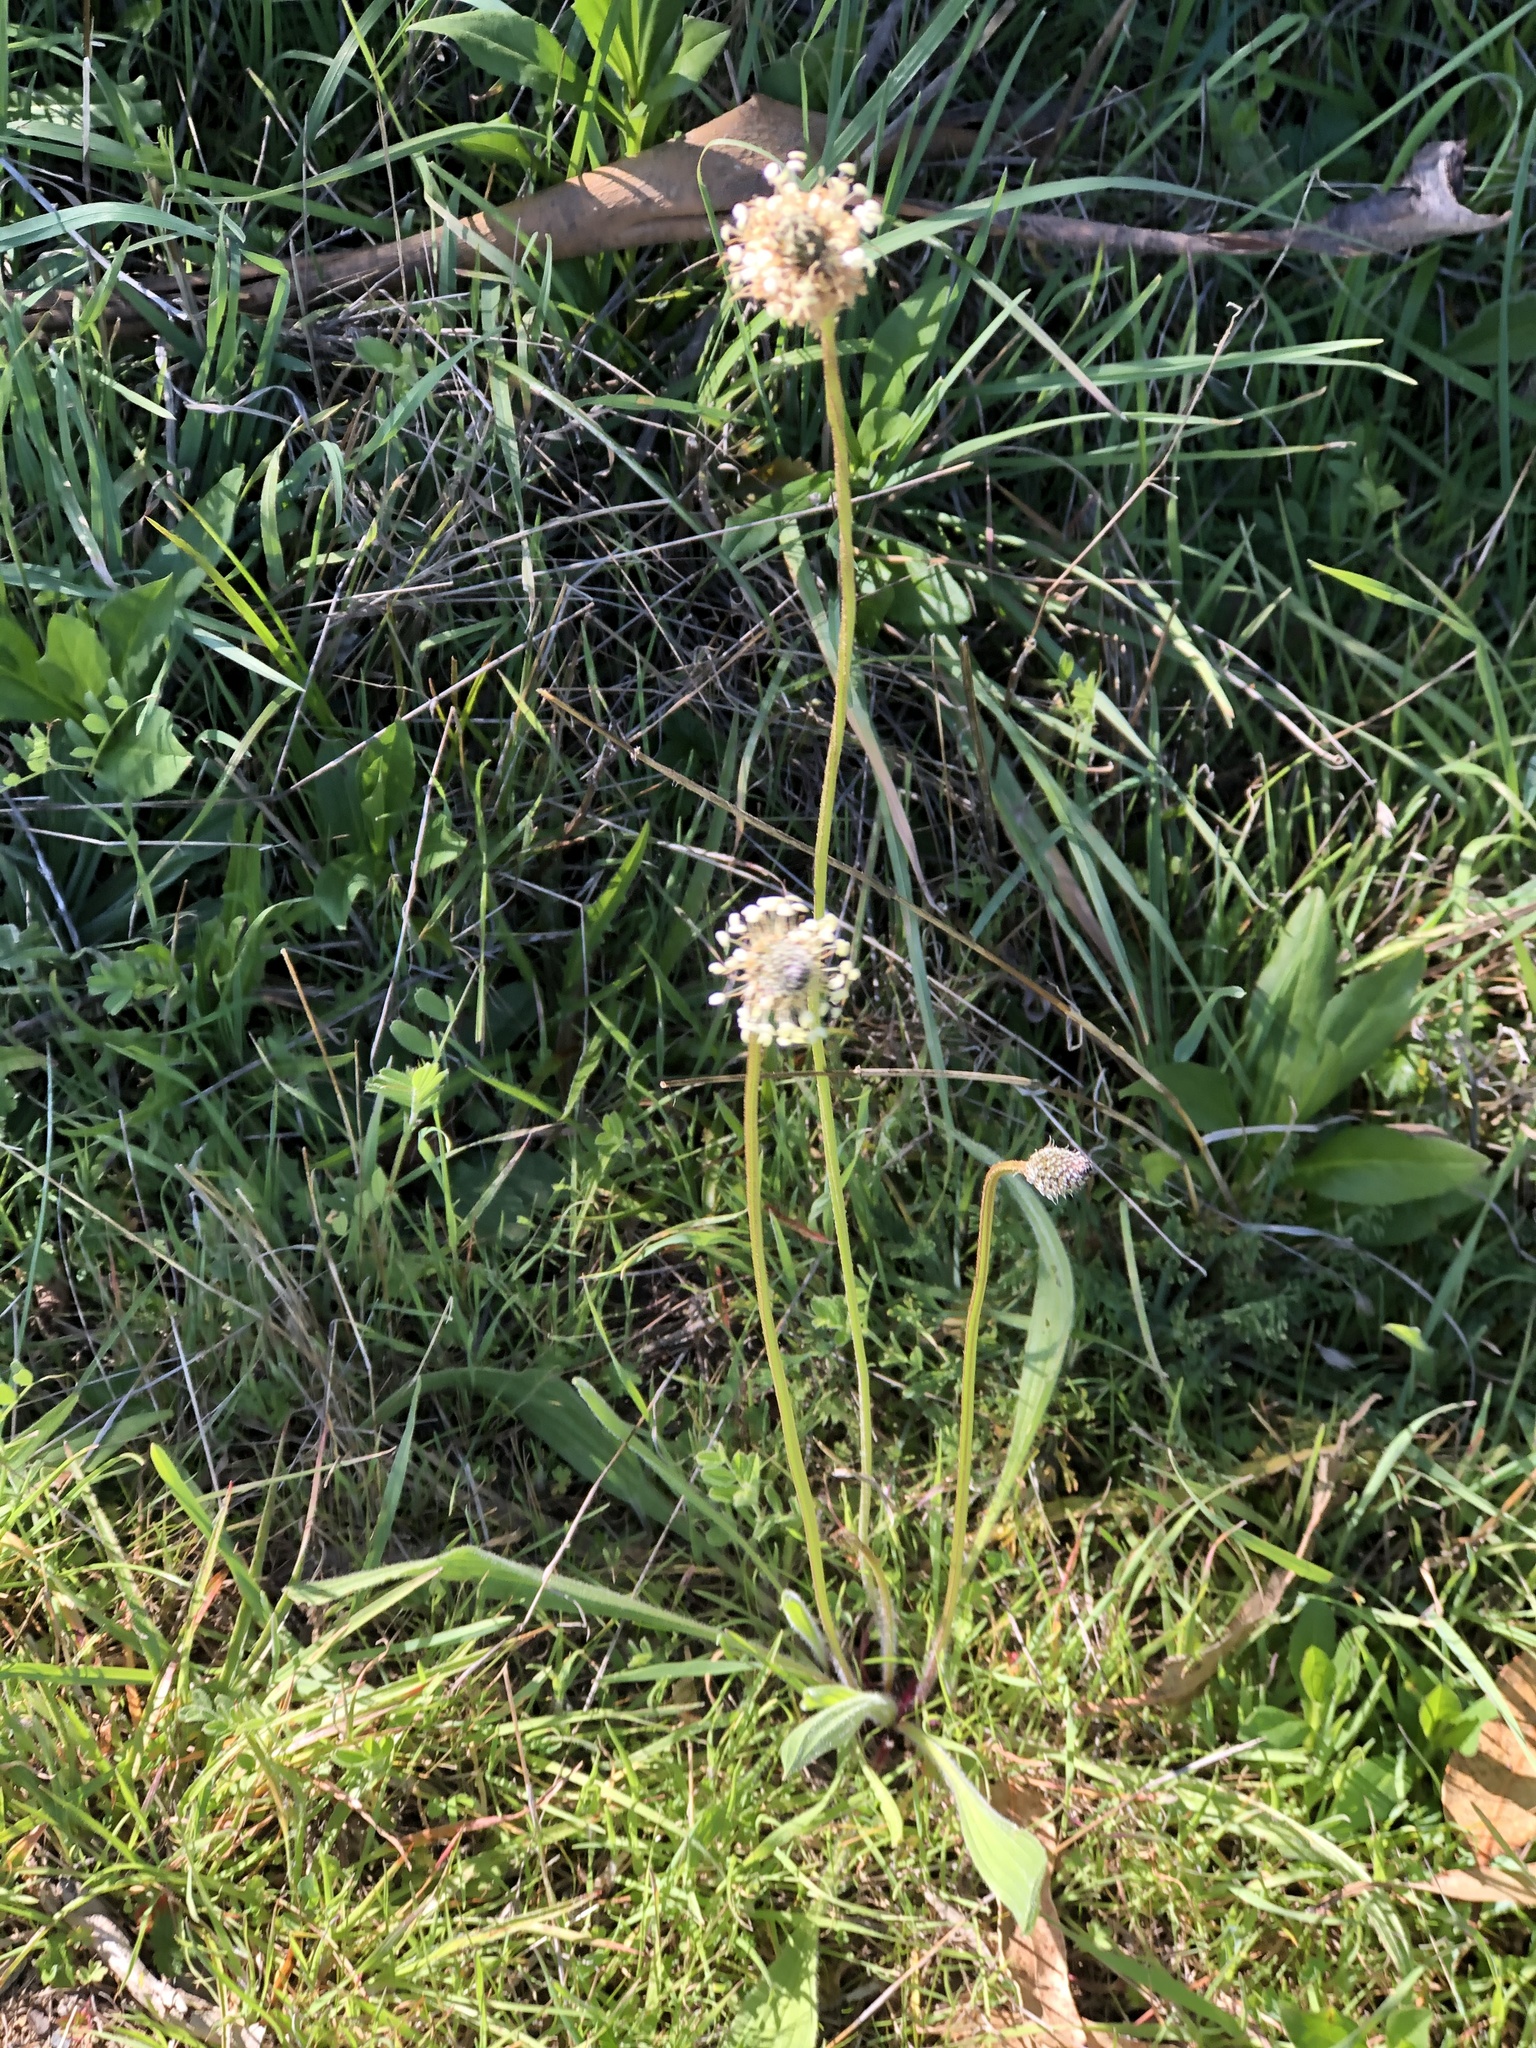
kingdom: Plantae
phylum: Tracheophyta
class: Magnoliopsida
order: Lamiales
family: Plantaginaceae
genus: Plantago
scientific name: Plantago lanceolata
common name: Ribwort plantain
